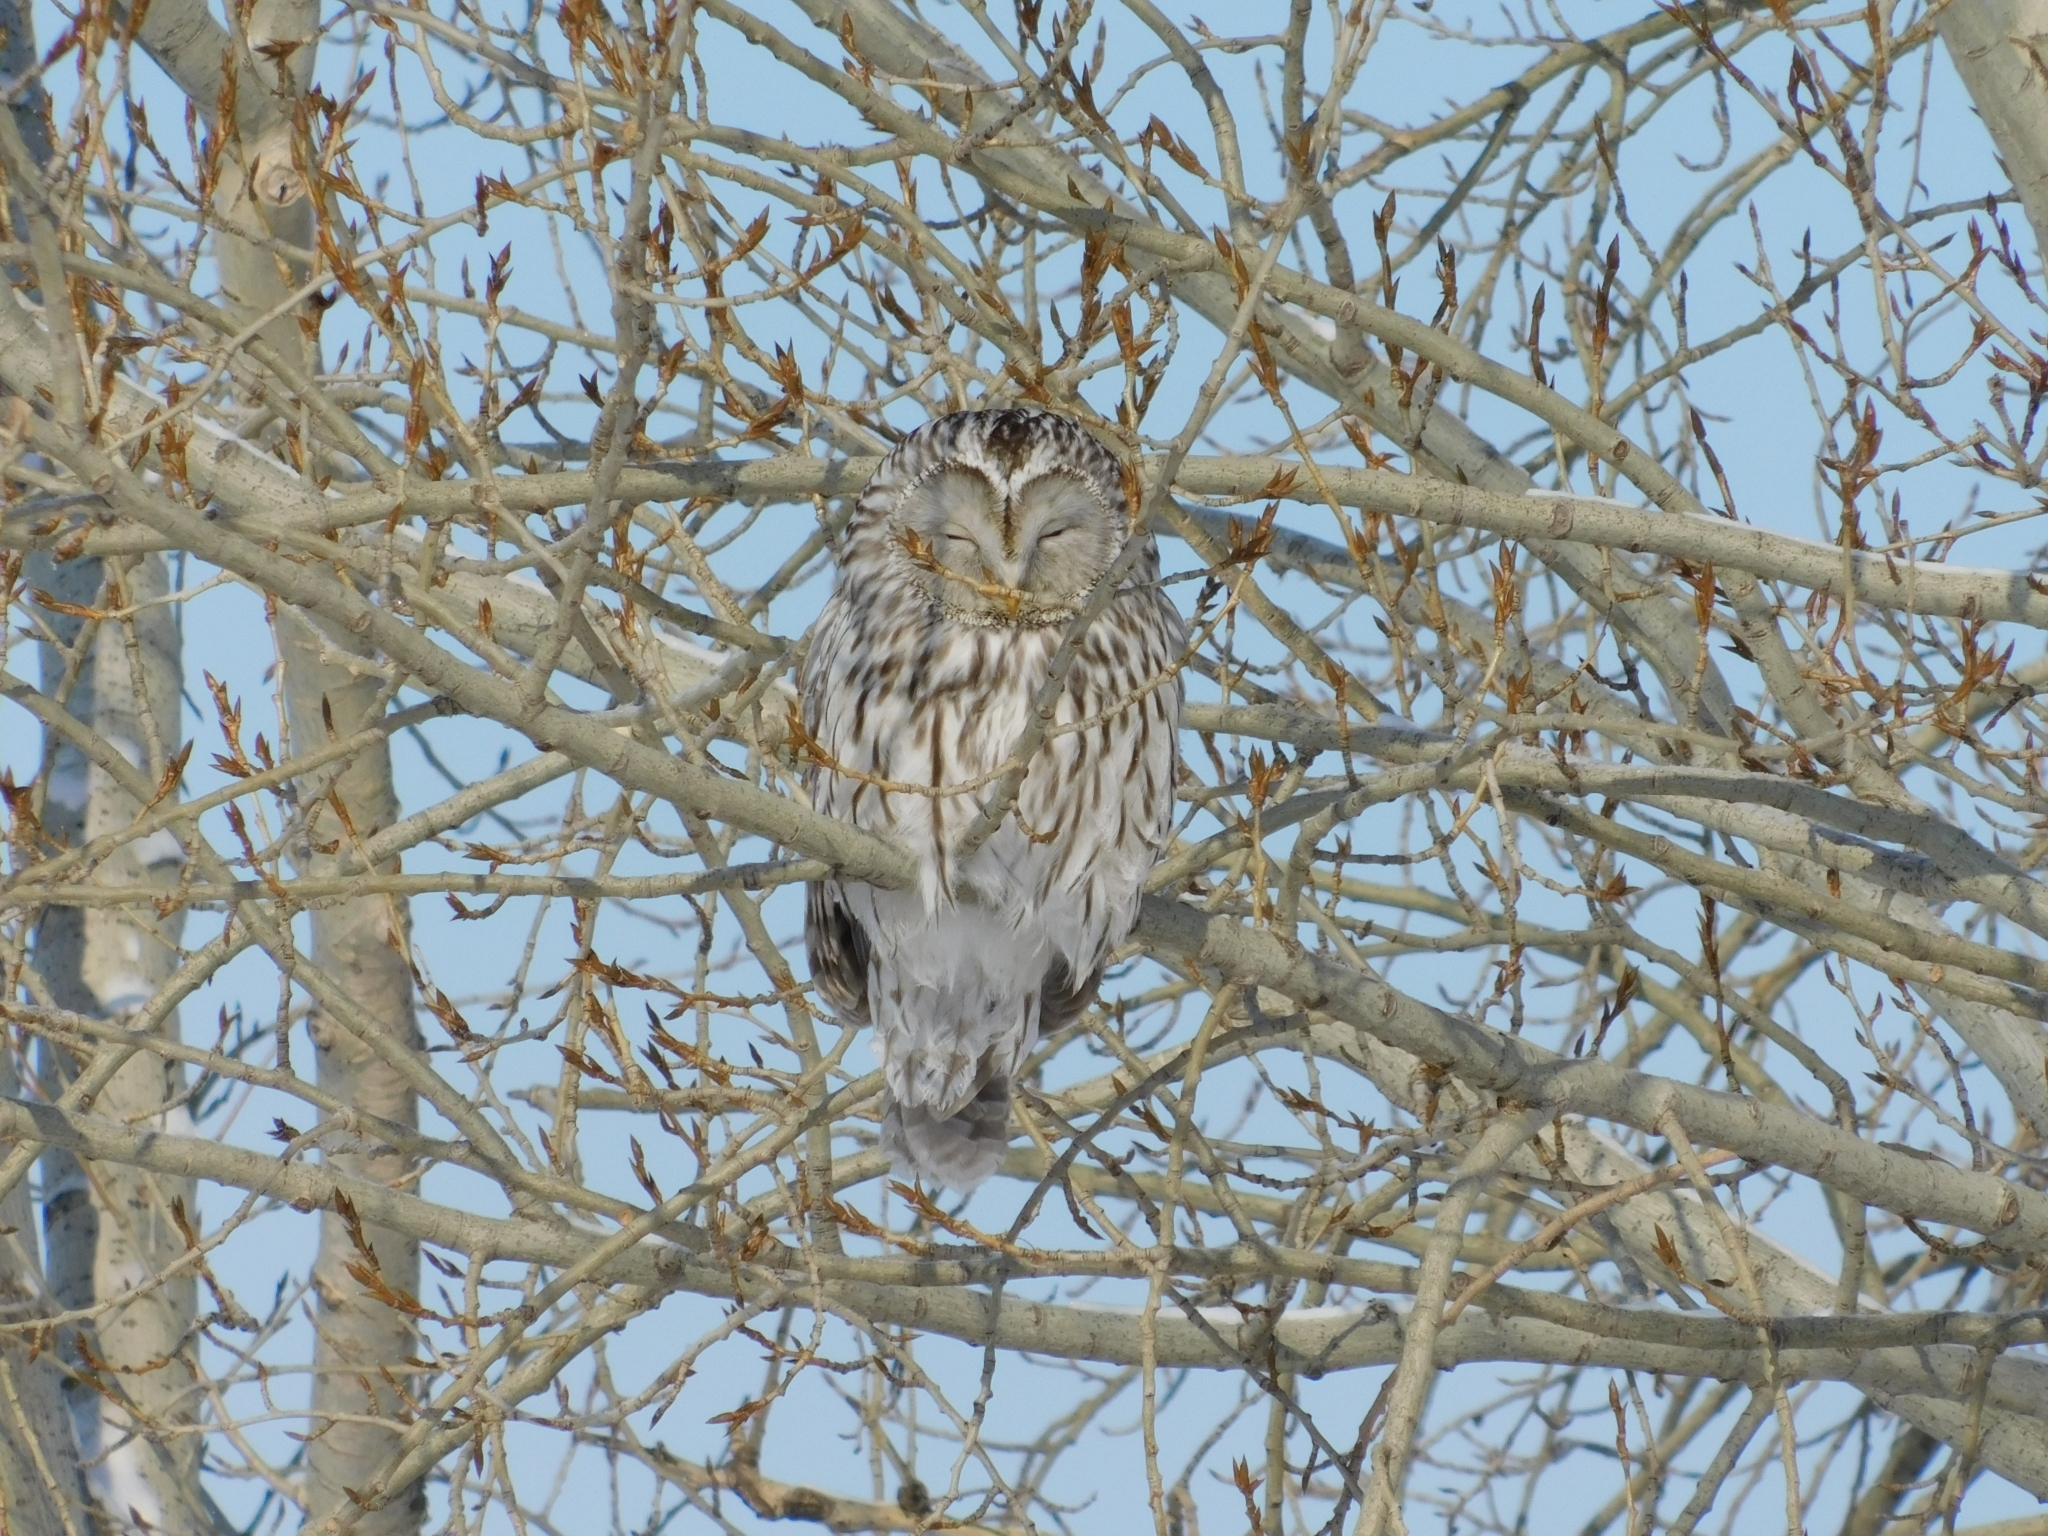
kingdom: Animalia
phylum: Chordata
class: Aves
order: Strigiformes
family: Strigidae
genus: Strix
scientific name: Strix uralensis
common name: Ural owl
